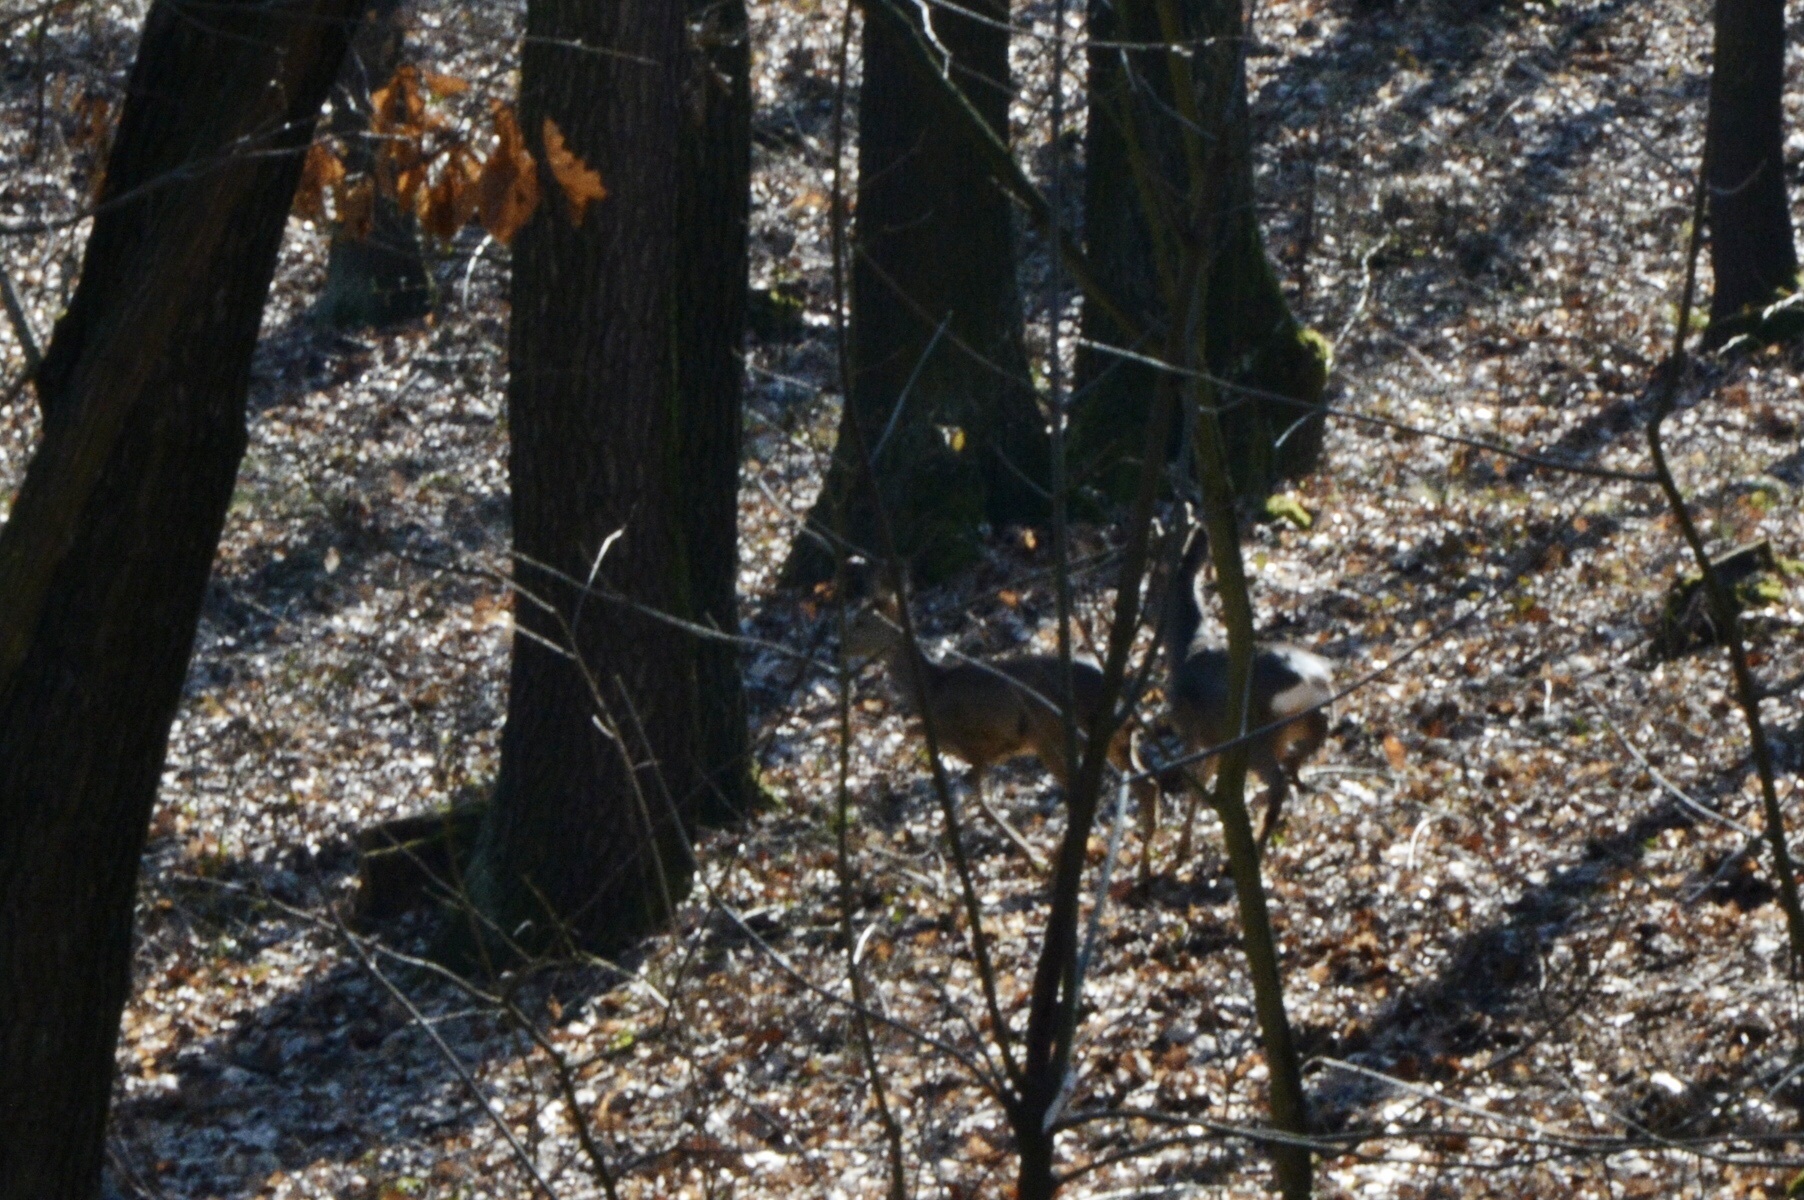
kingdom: Animalia
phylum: Chordata
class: Mammalia
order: Artiodactyla
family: Cervidae
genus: Capreolus
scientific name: Capreolus capreolus
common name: Western roe deer
